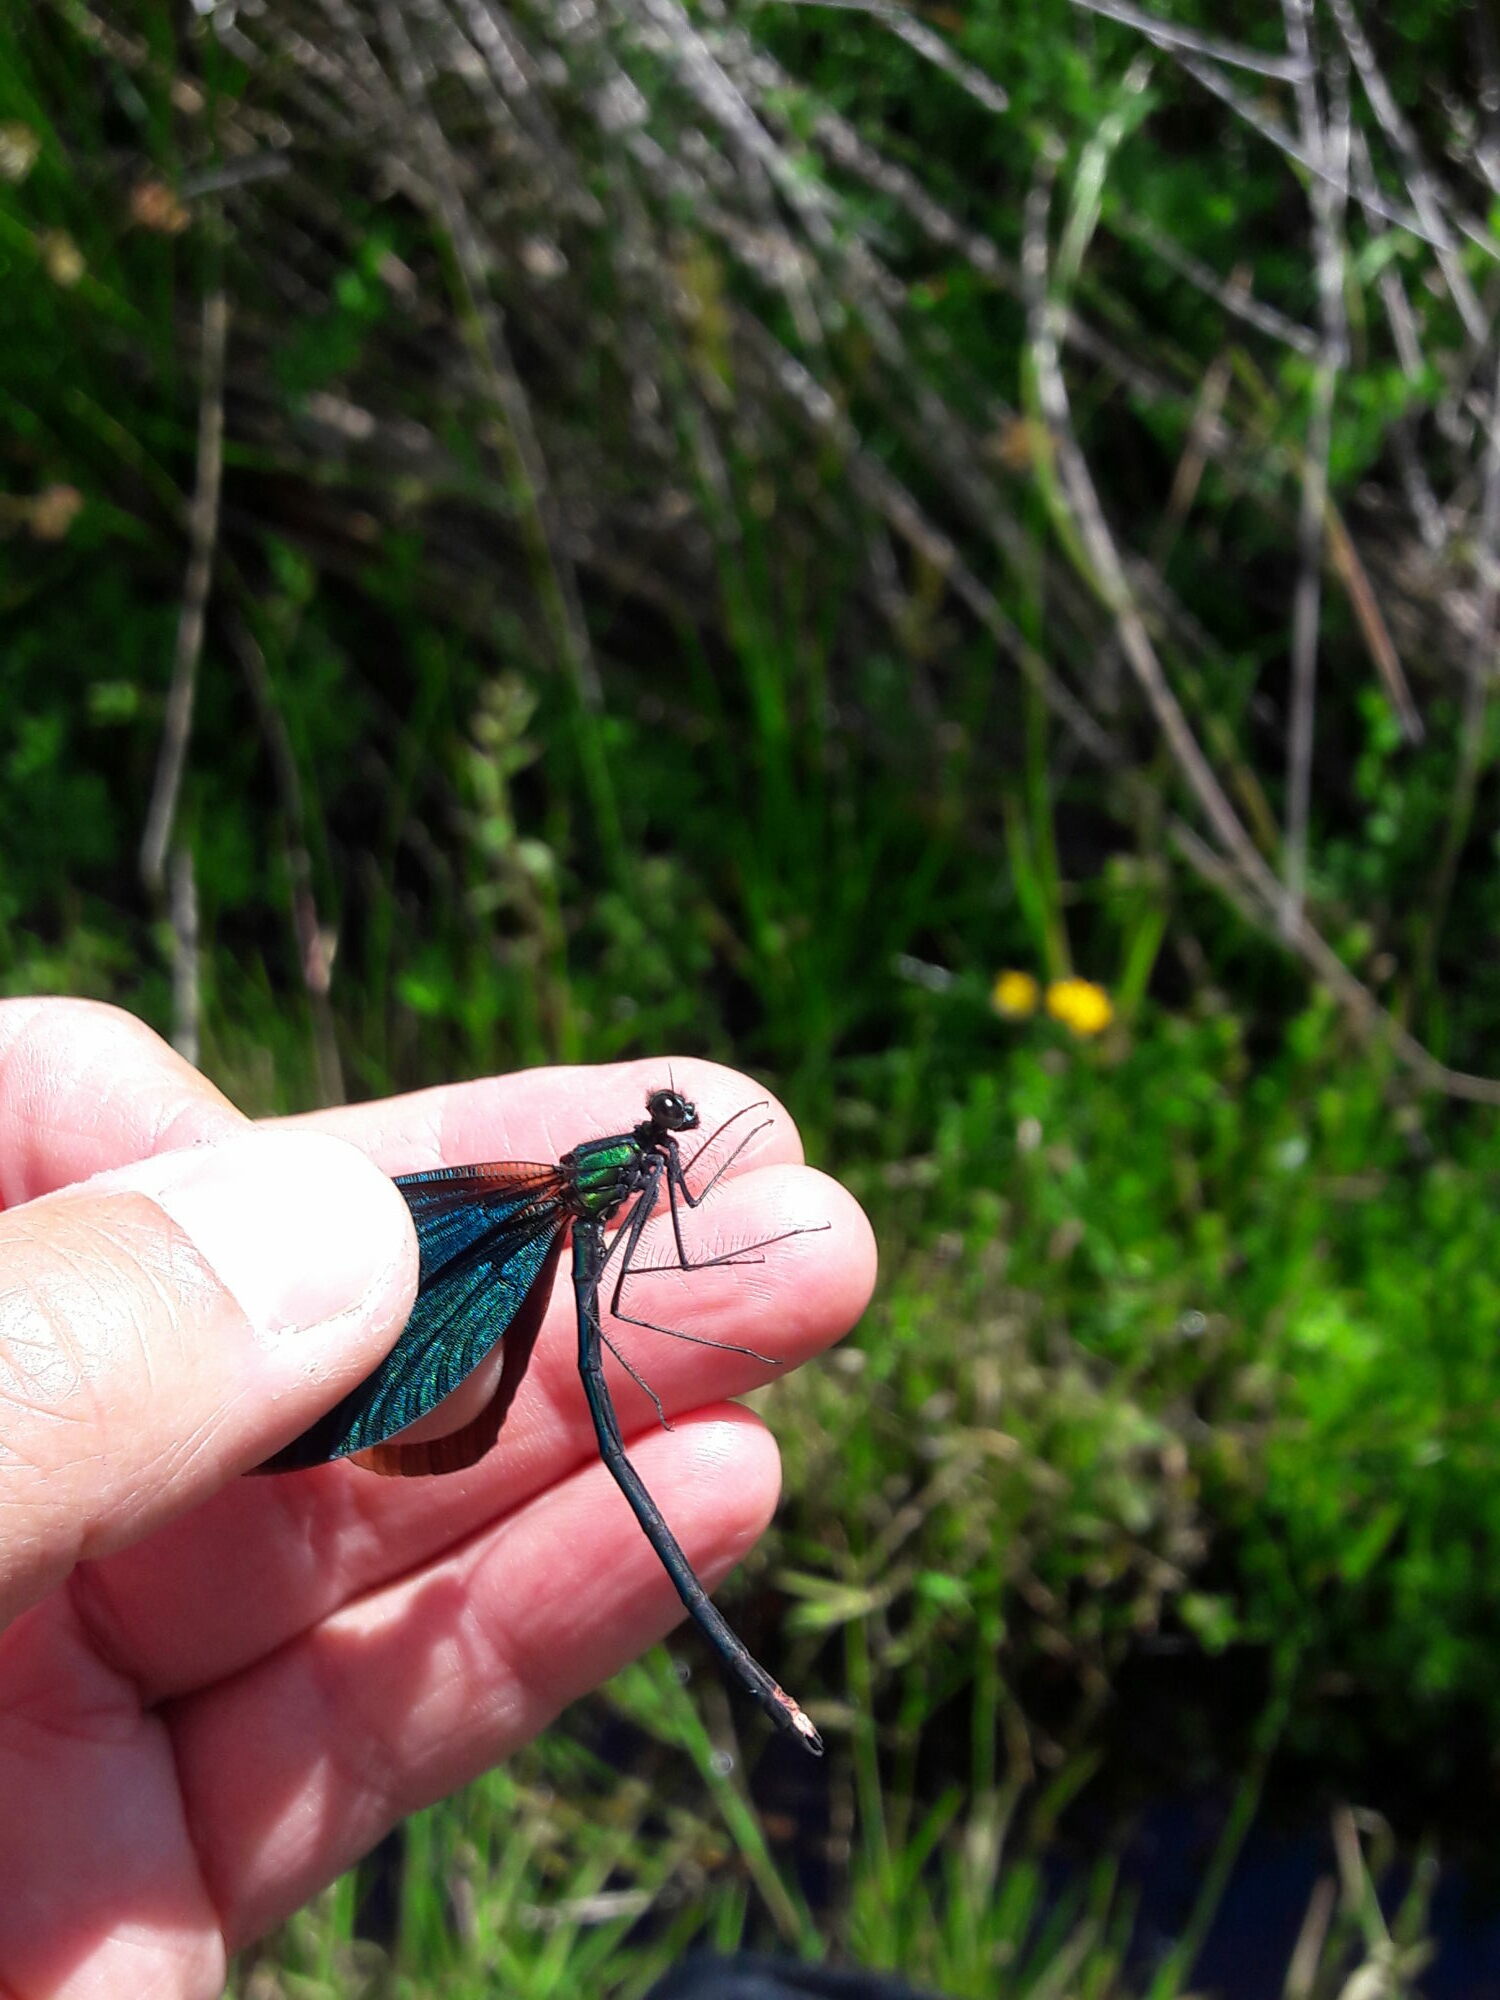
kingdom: Animalia
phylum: Arthropoda
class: Insecta
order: Odonata
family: Calopterygidae
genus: Calopteryx
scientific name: Calopteryx virgo
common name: Beautiful demoiselle
